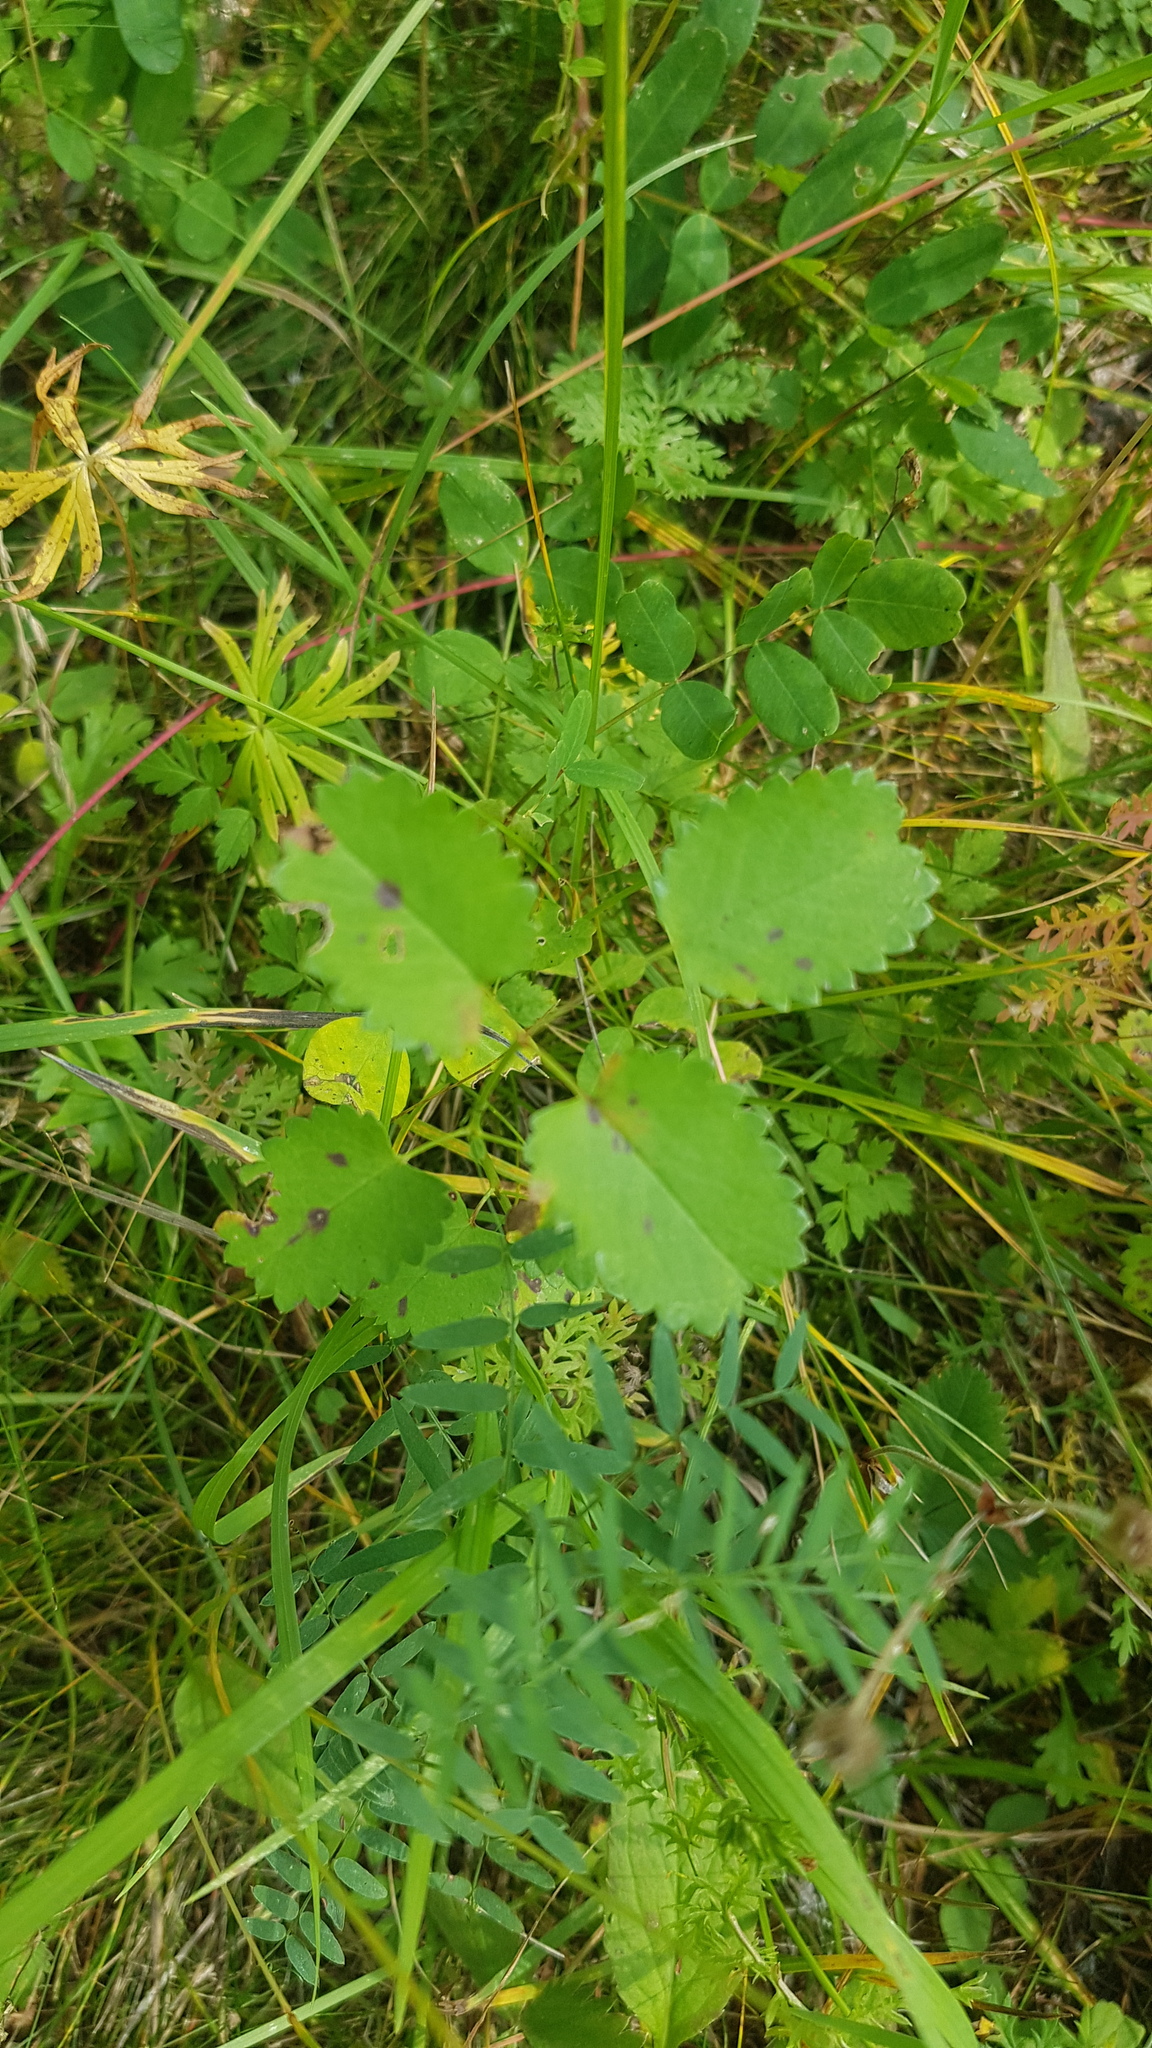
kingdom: Plantae
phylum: Tracheophyta
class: Magnoliopsida
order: Rosales
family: Rosaceae
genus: Sanguisorba
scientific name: Sanguisorba officinalis
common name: Great burnet
